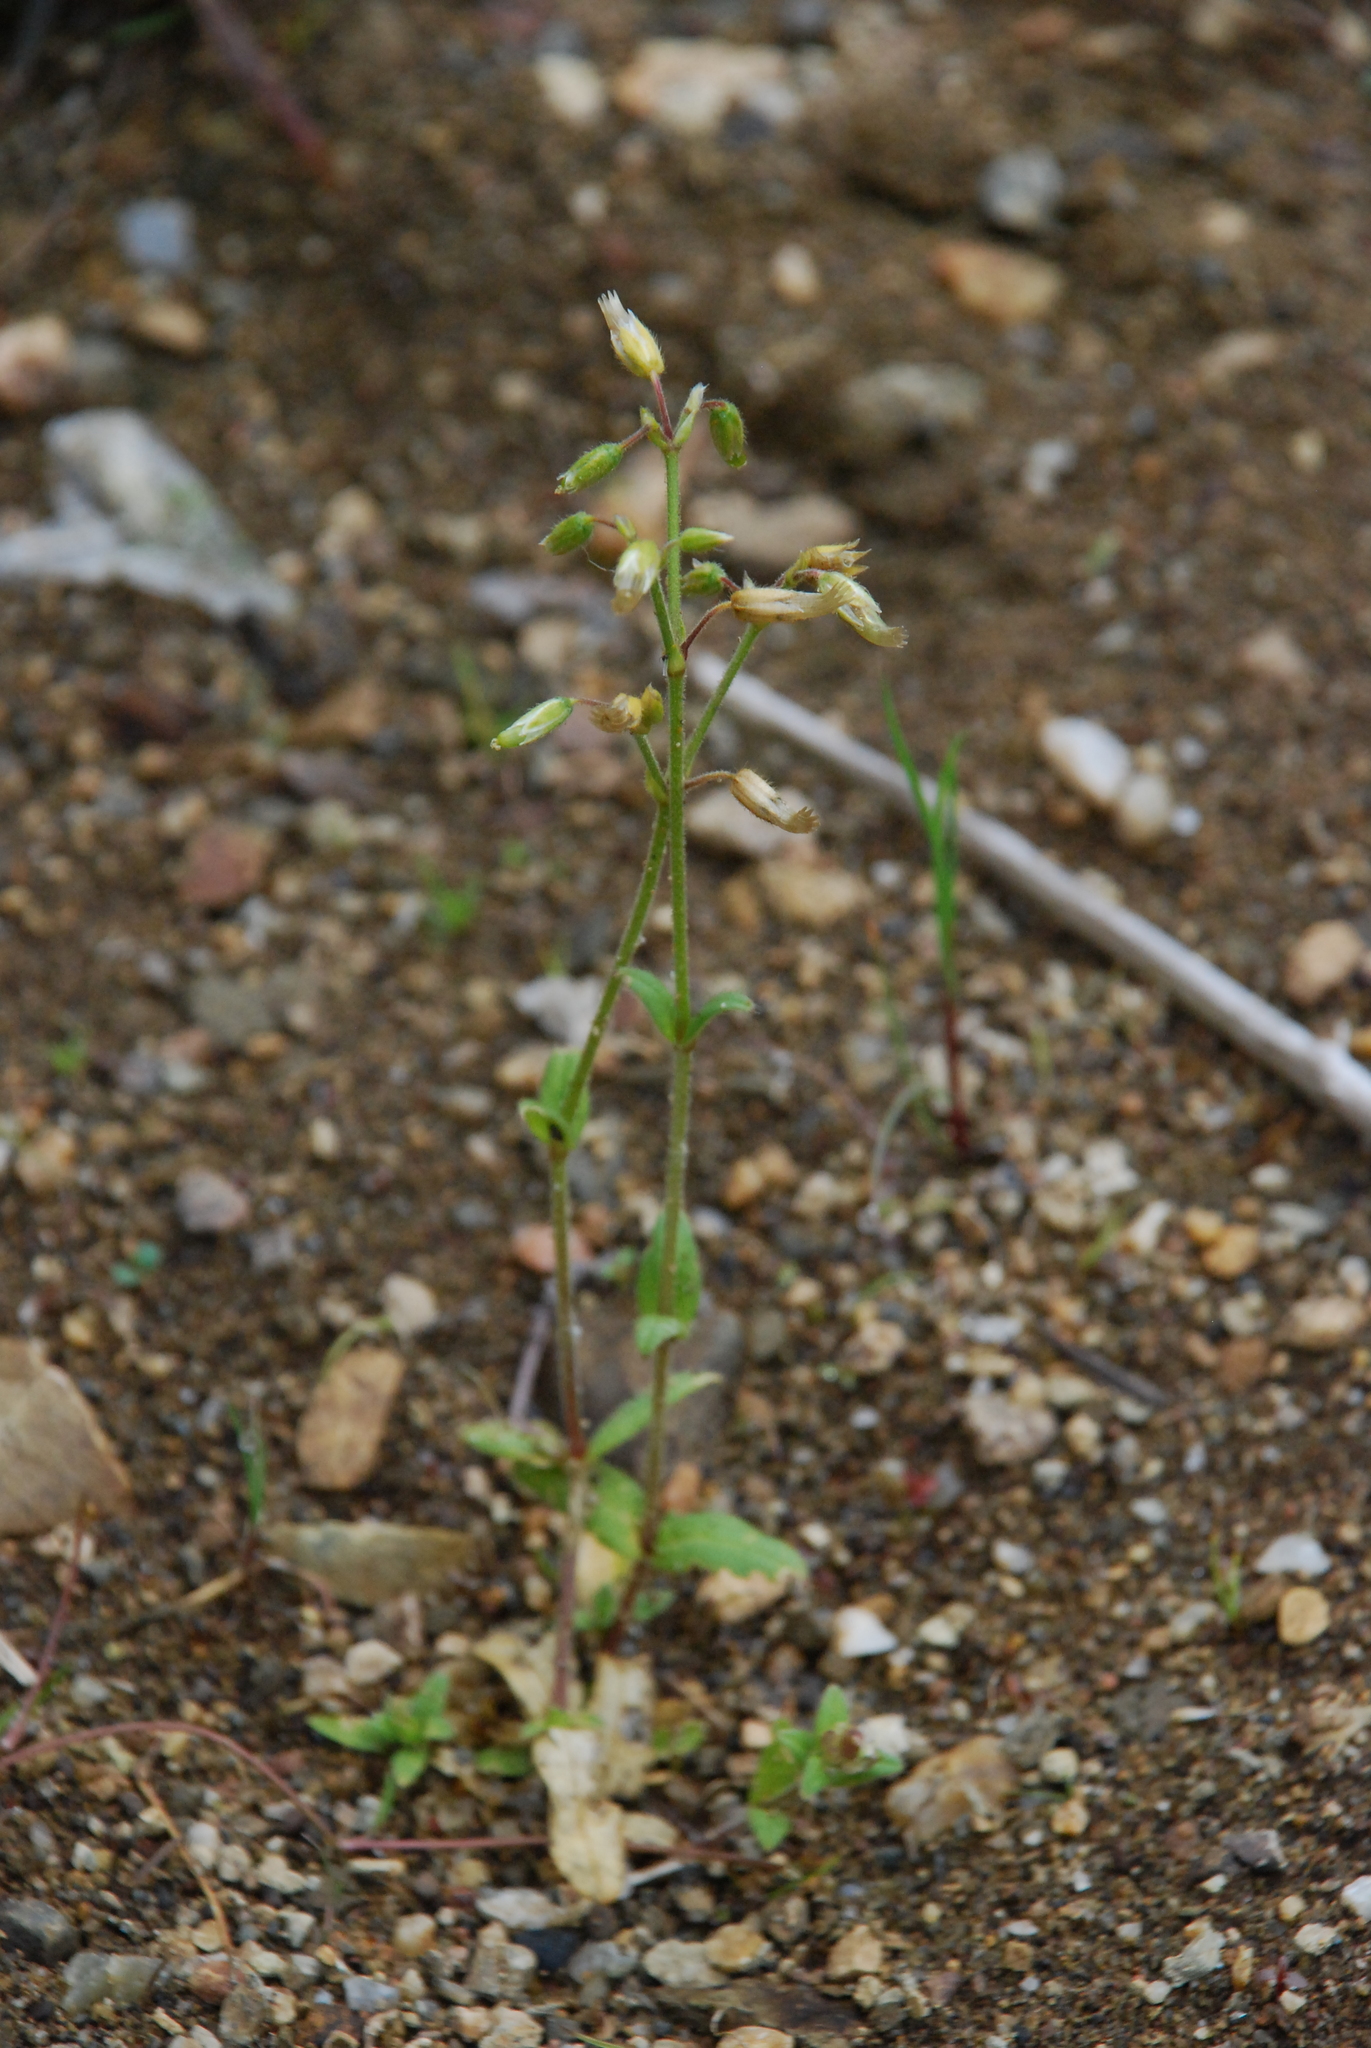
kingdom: Plantae
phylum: Tracheophyta
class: Magnoliopsida
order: Caryophyllales
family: Caryophyllaceae
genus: Cerastium
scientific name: Cerastium holosteoides
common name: Big chickweed
